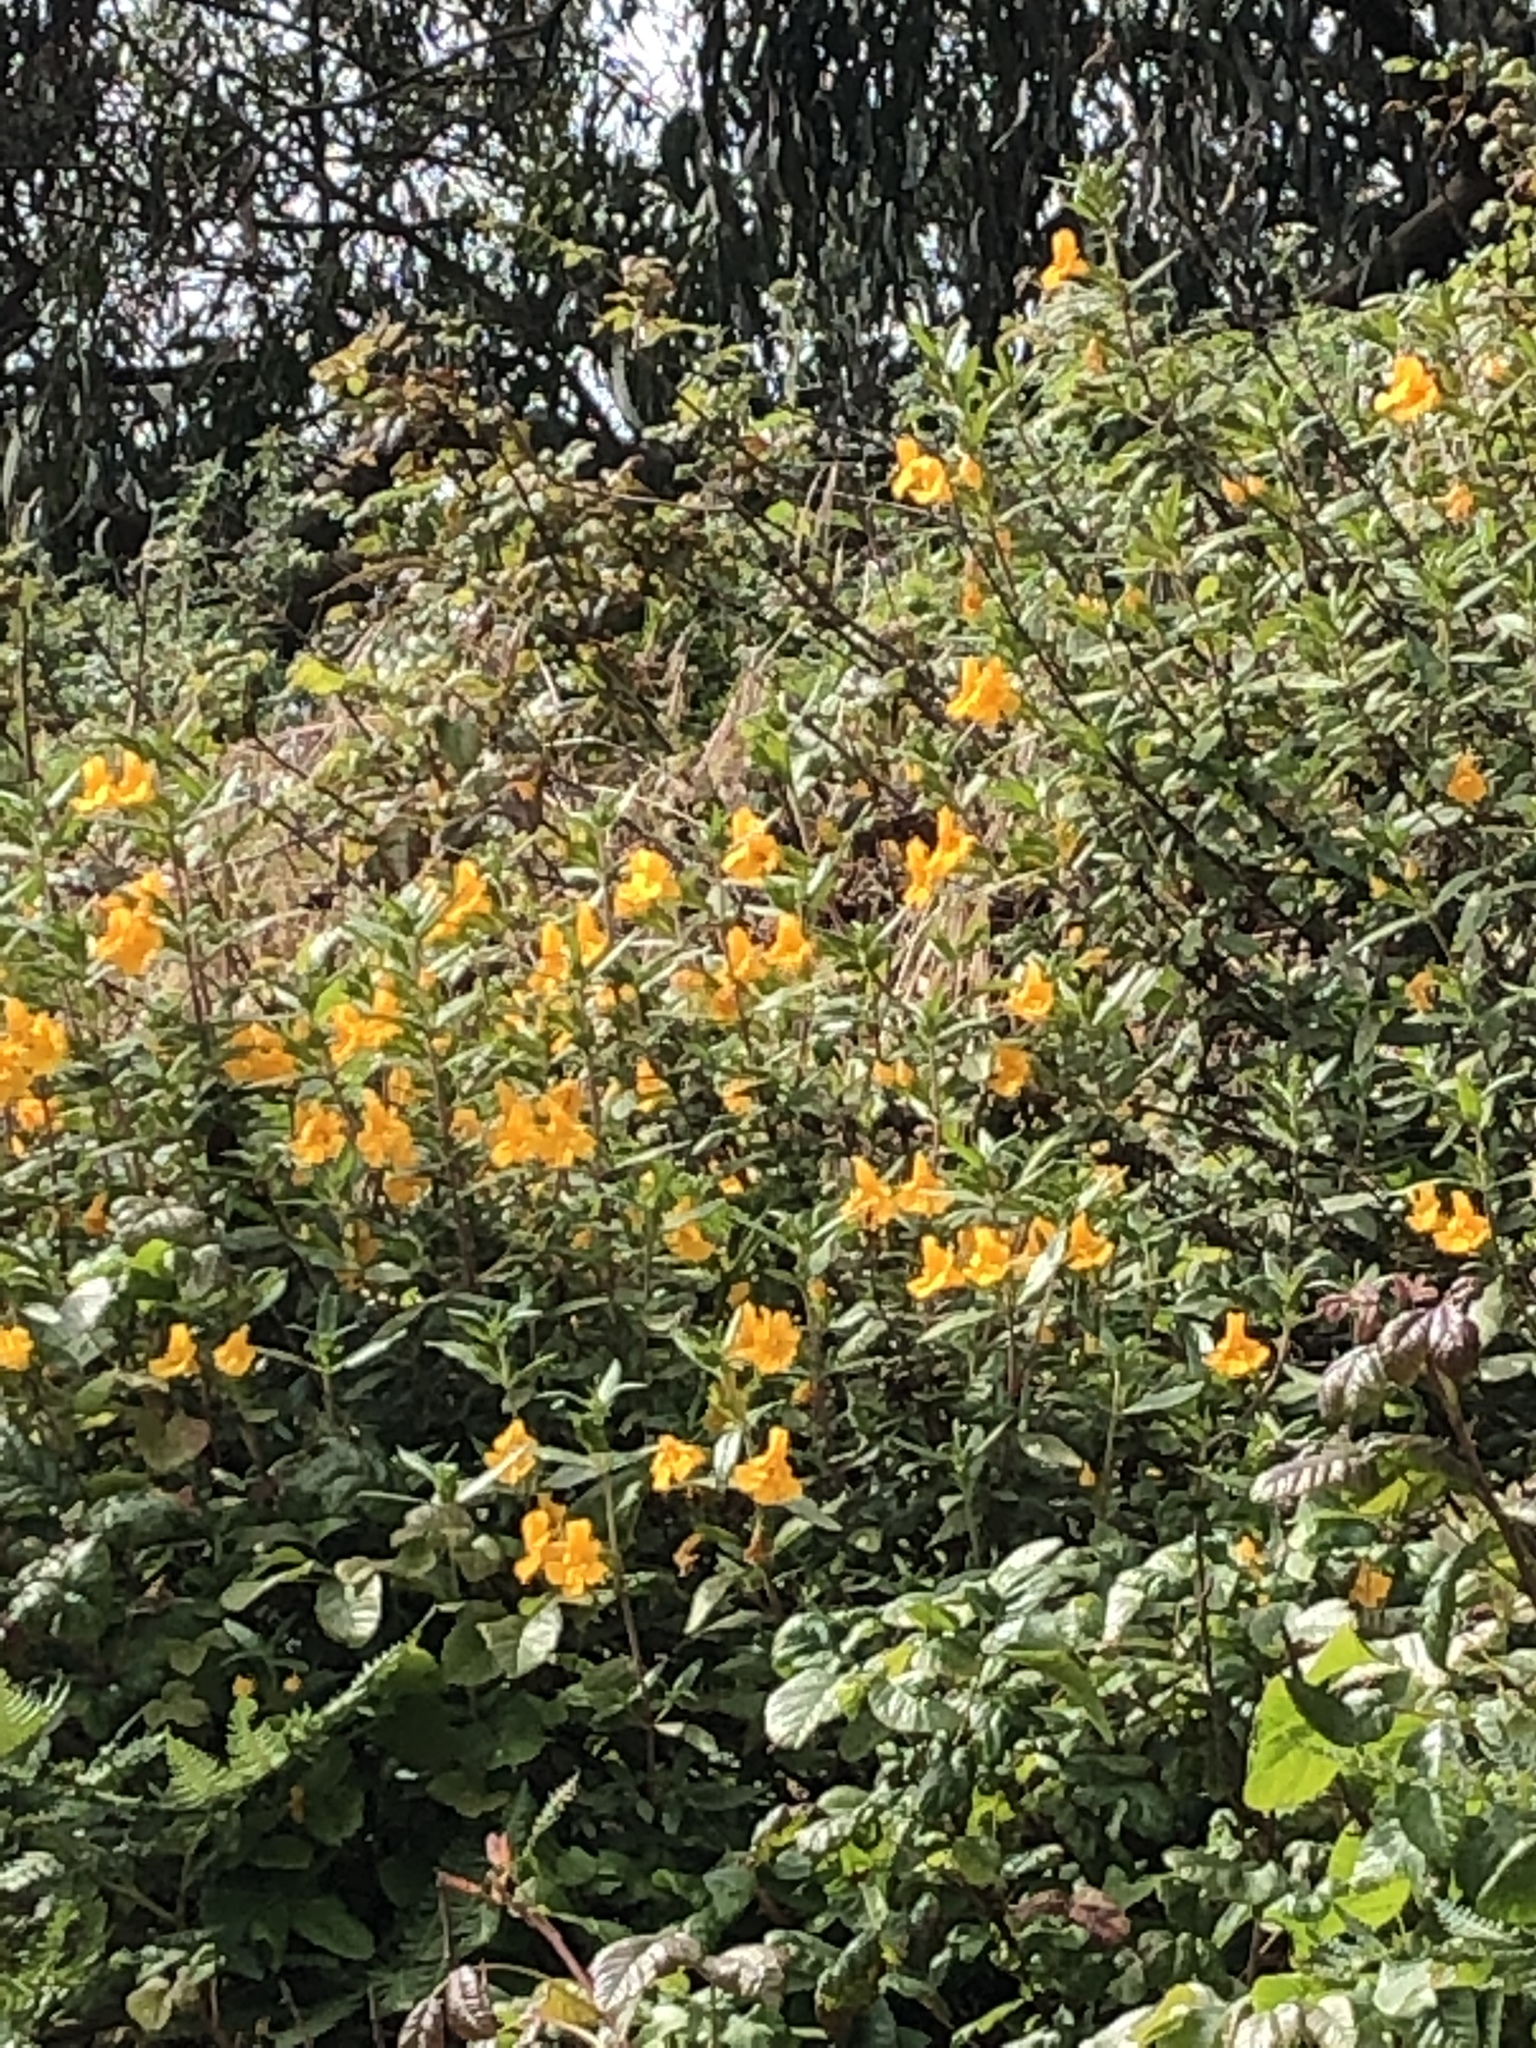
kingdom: Plantae
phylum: Tracheophyta
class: Magnoliopsida
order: Lamiales
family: Phrymaceae
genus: Diplacus
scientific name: Diplacus aurantiacus
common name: Bush monkey-flower
